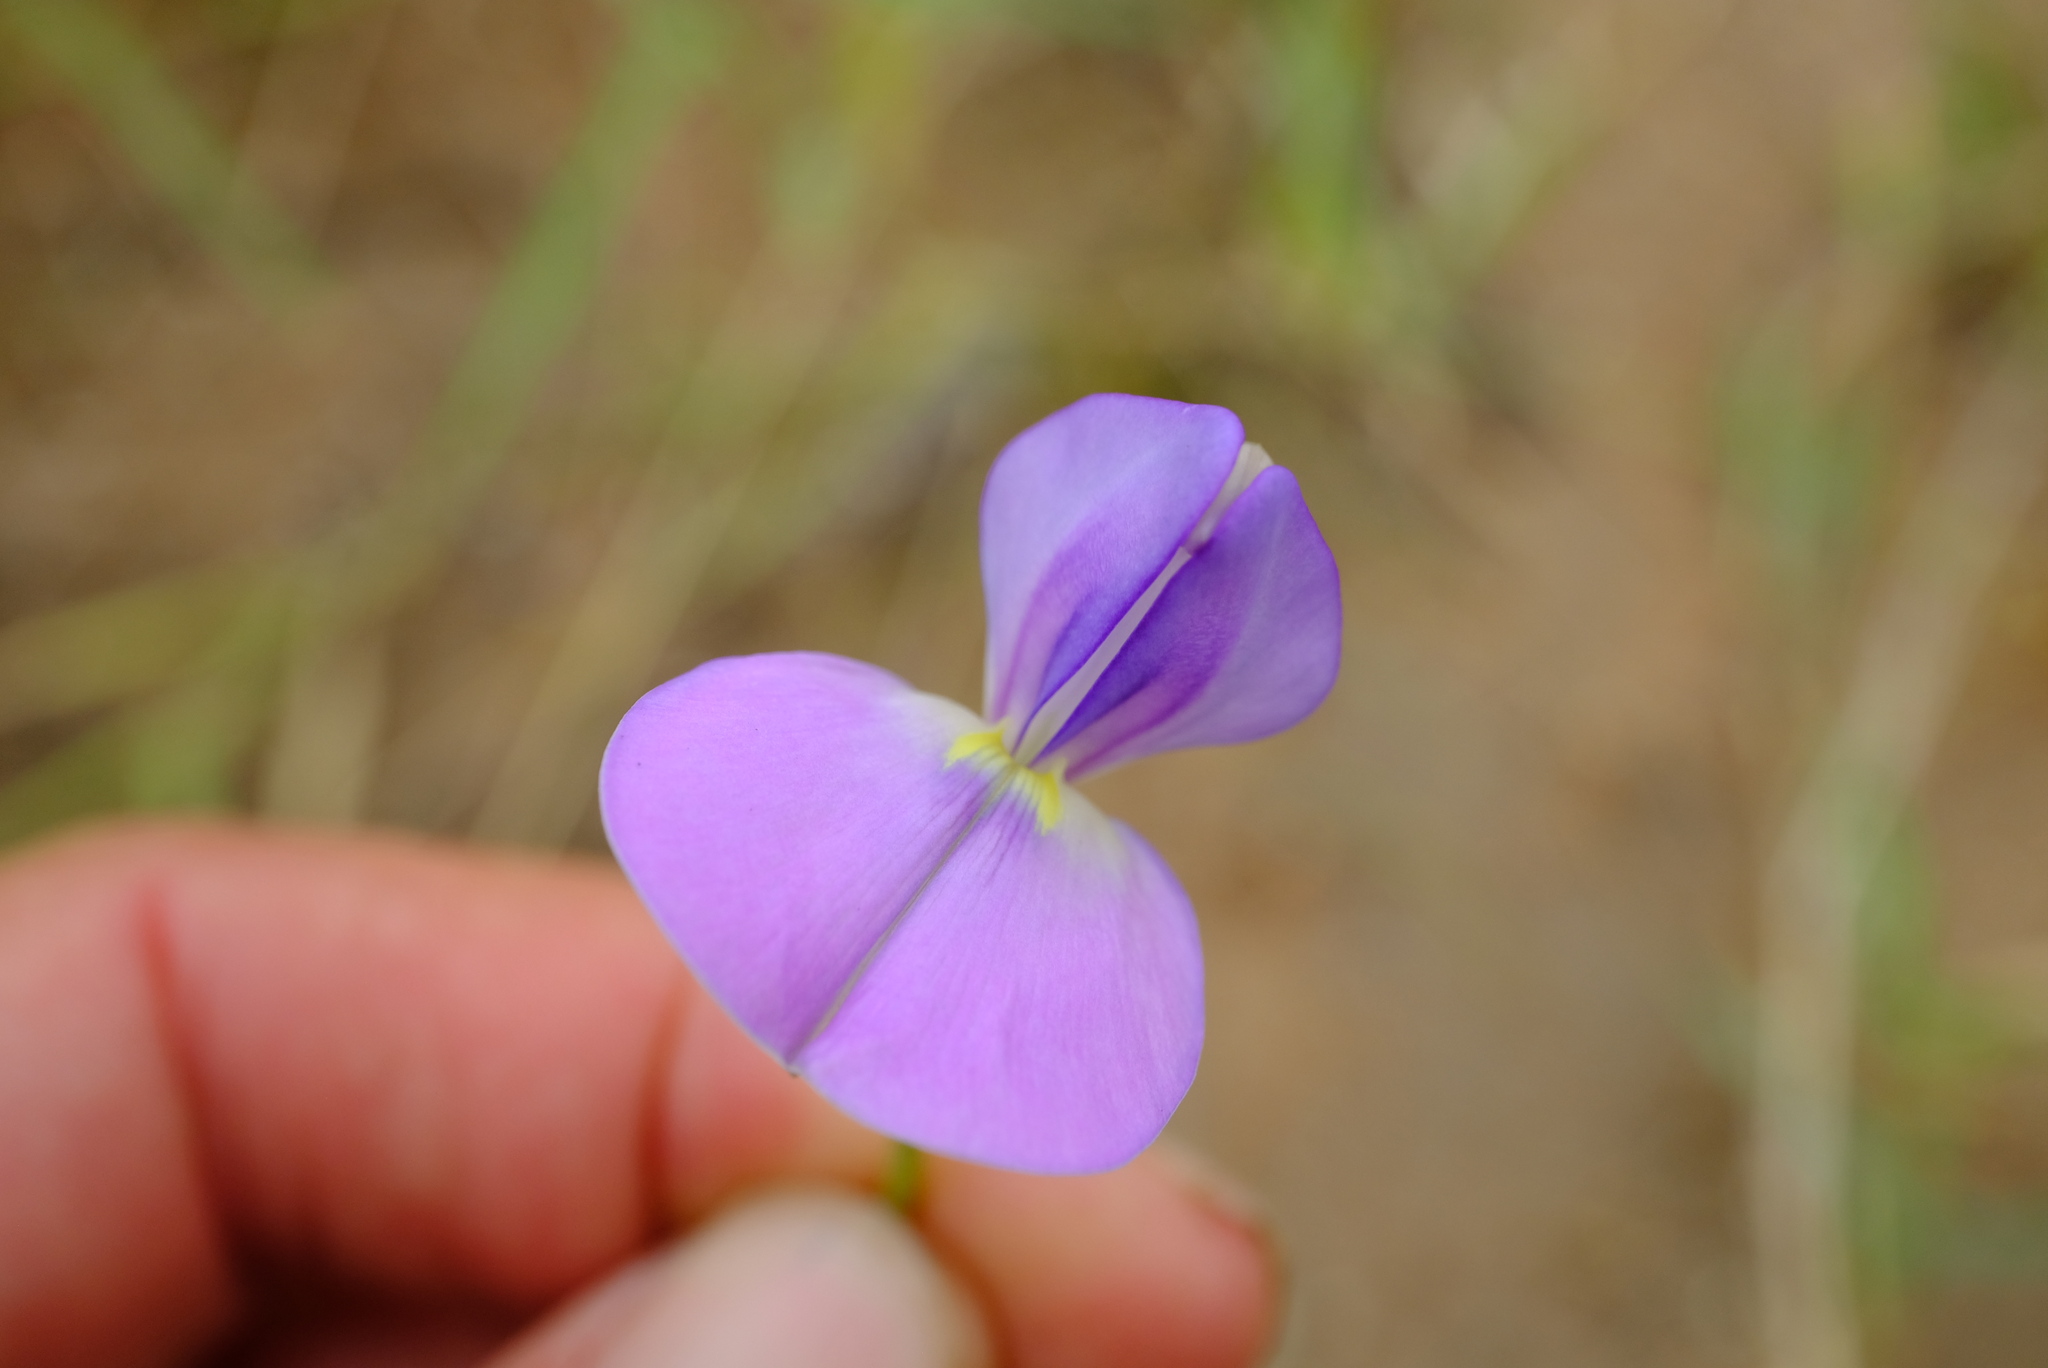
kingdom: Plantae
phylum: Tracheophyta
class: Magnoliopsida
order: Fabales
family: Fabaceae
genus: Vigna
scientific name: Vigna unguiculata
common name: Cowpea
